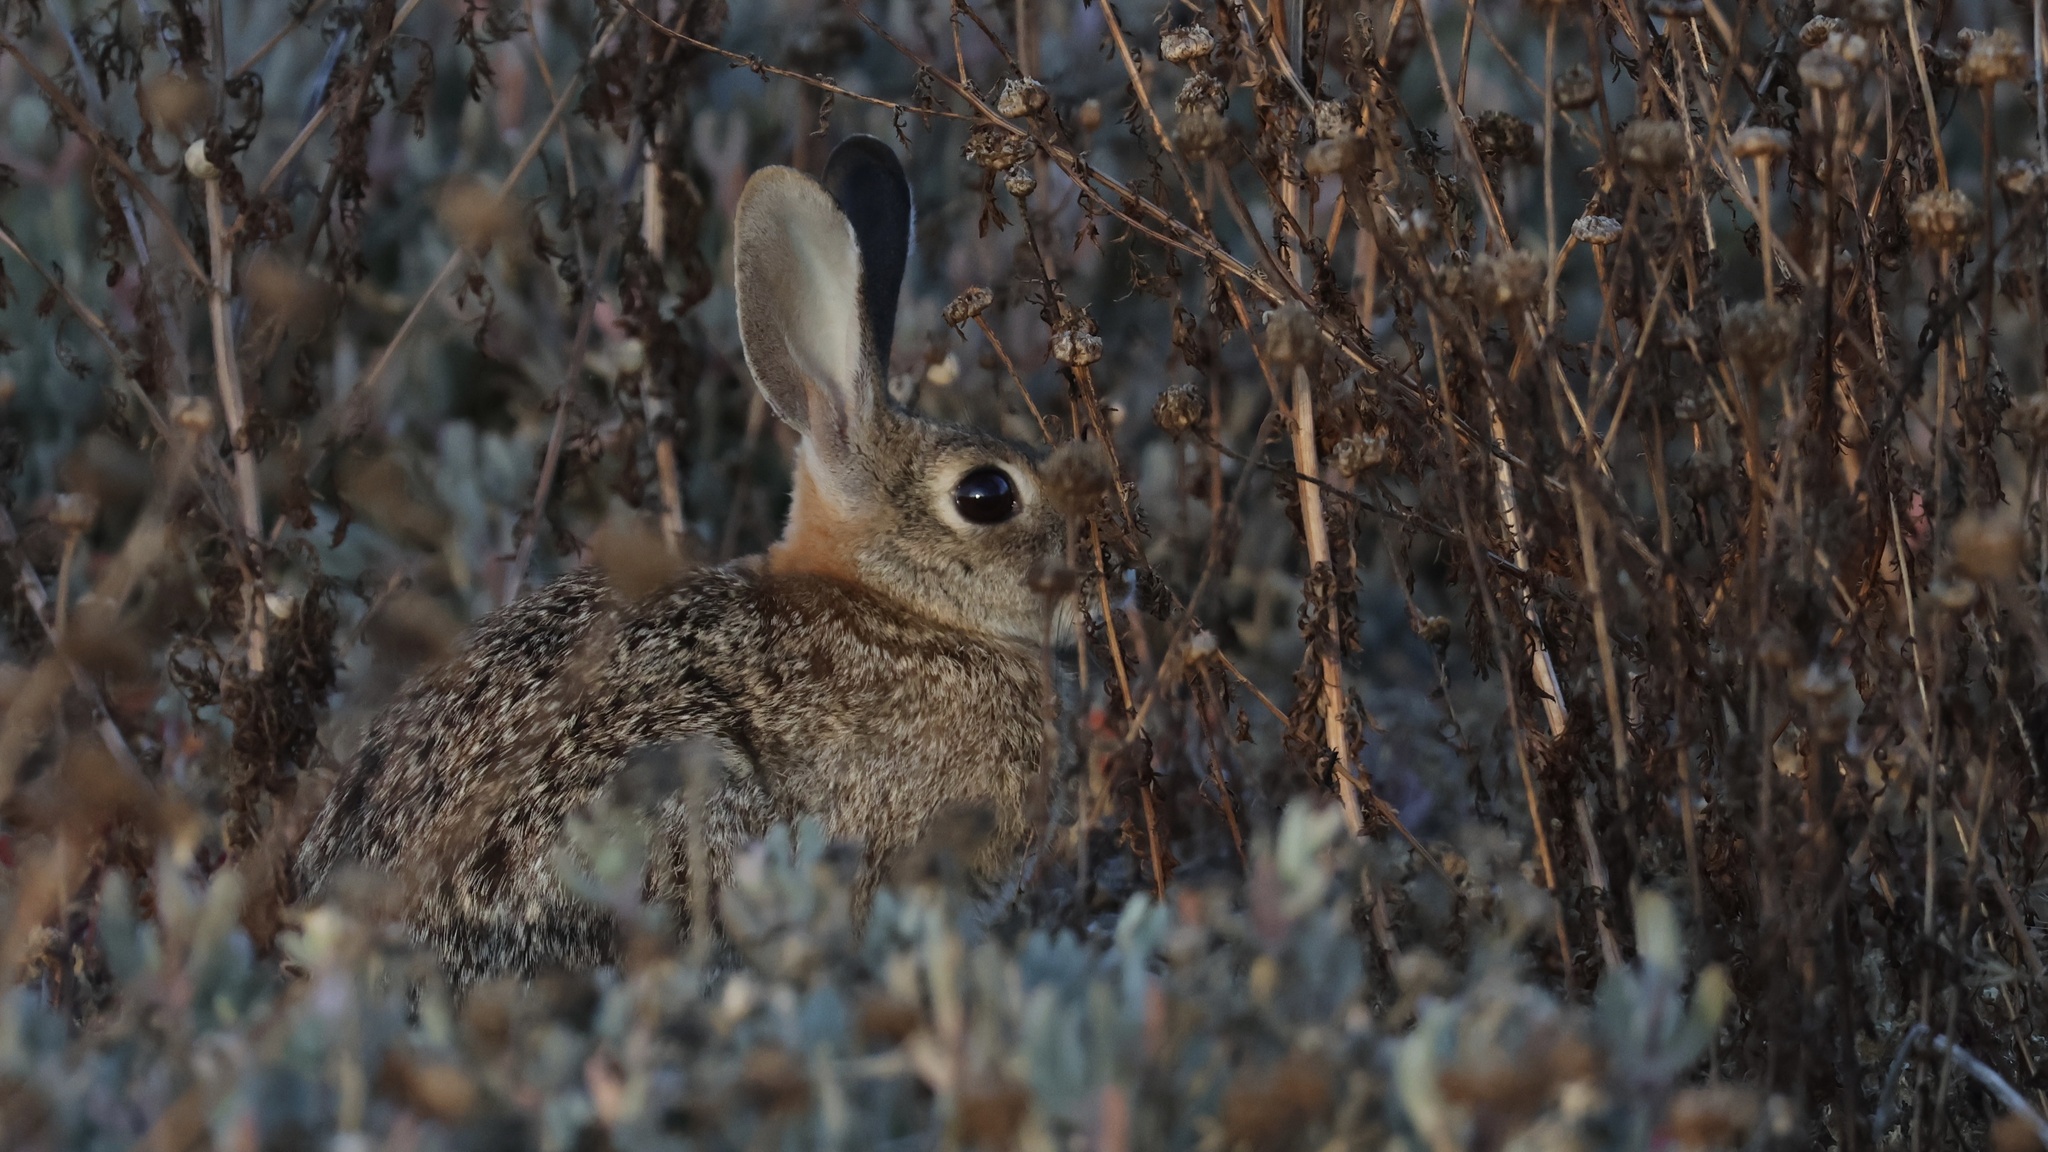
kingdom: Animalia
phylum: Chordata
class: Mammalia
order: Lagomorpha
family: Leporidae
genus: Sylvilagus
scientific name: Sylvilagus audubonii
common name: Desert cottontail
